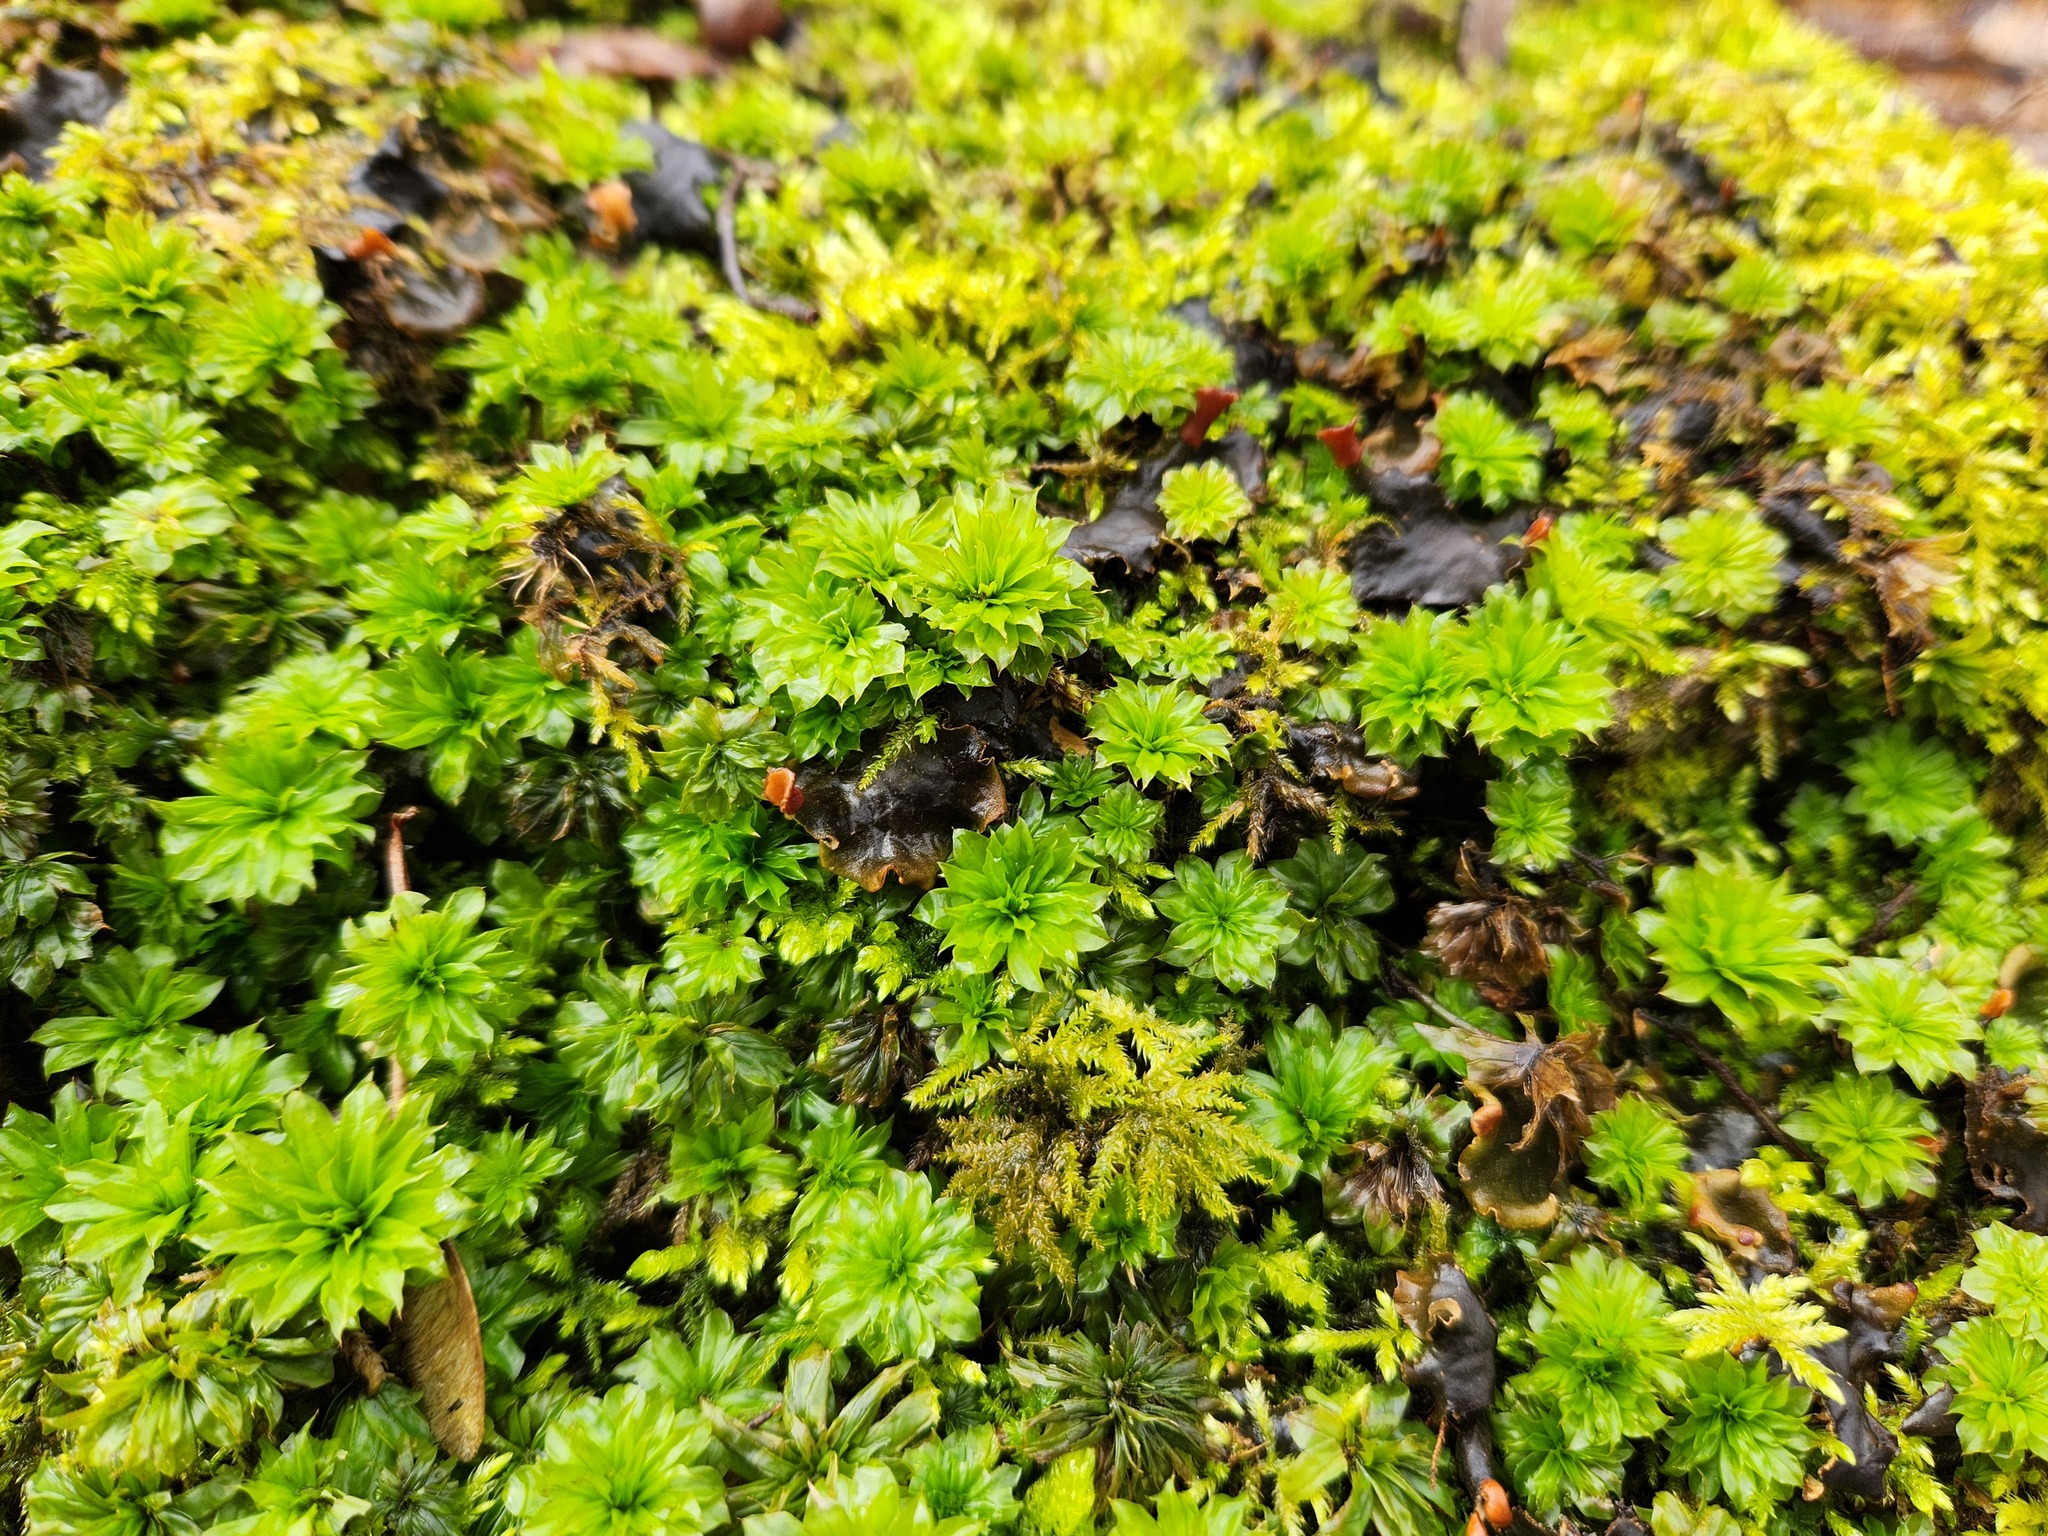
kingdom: Plantae
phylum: Bryophyta
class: Bryopsida
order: Bryales
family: Bryaceae
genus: Rhodobryum
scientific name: Rhodobryum ontariense
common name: Ontario rhodobryum moss
